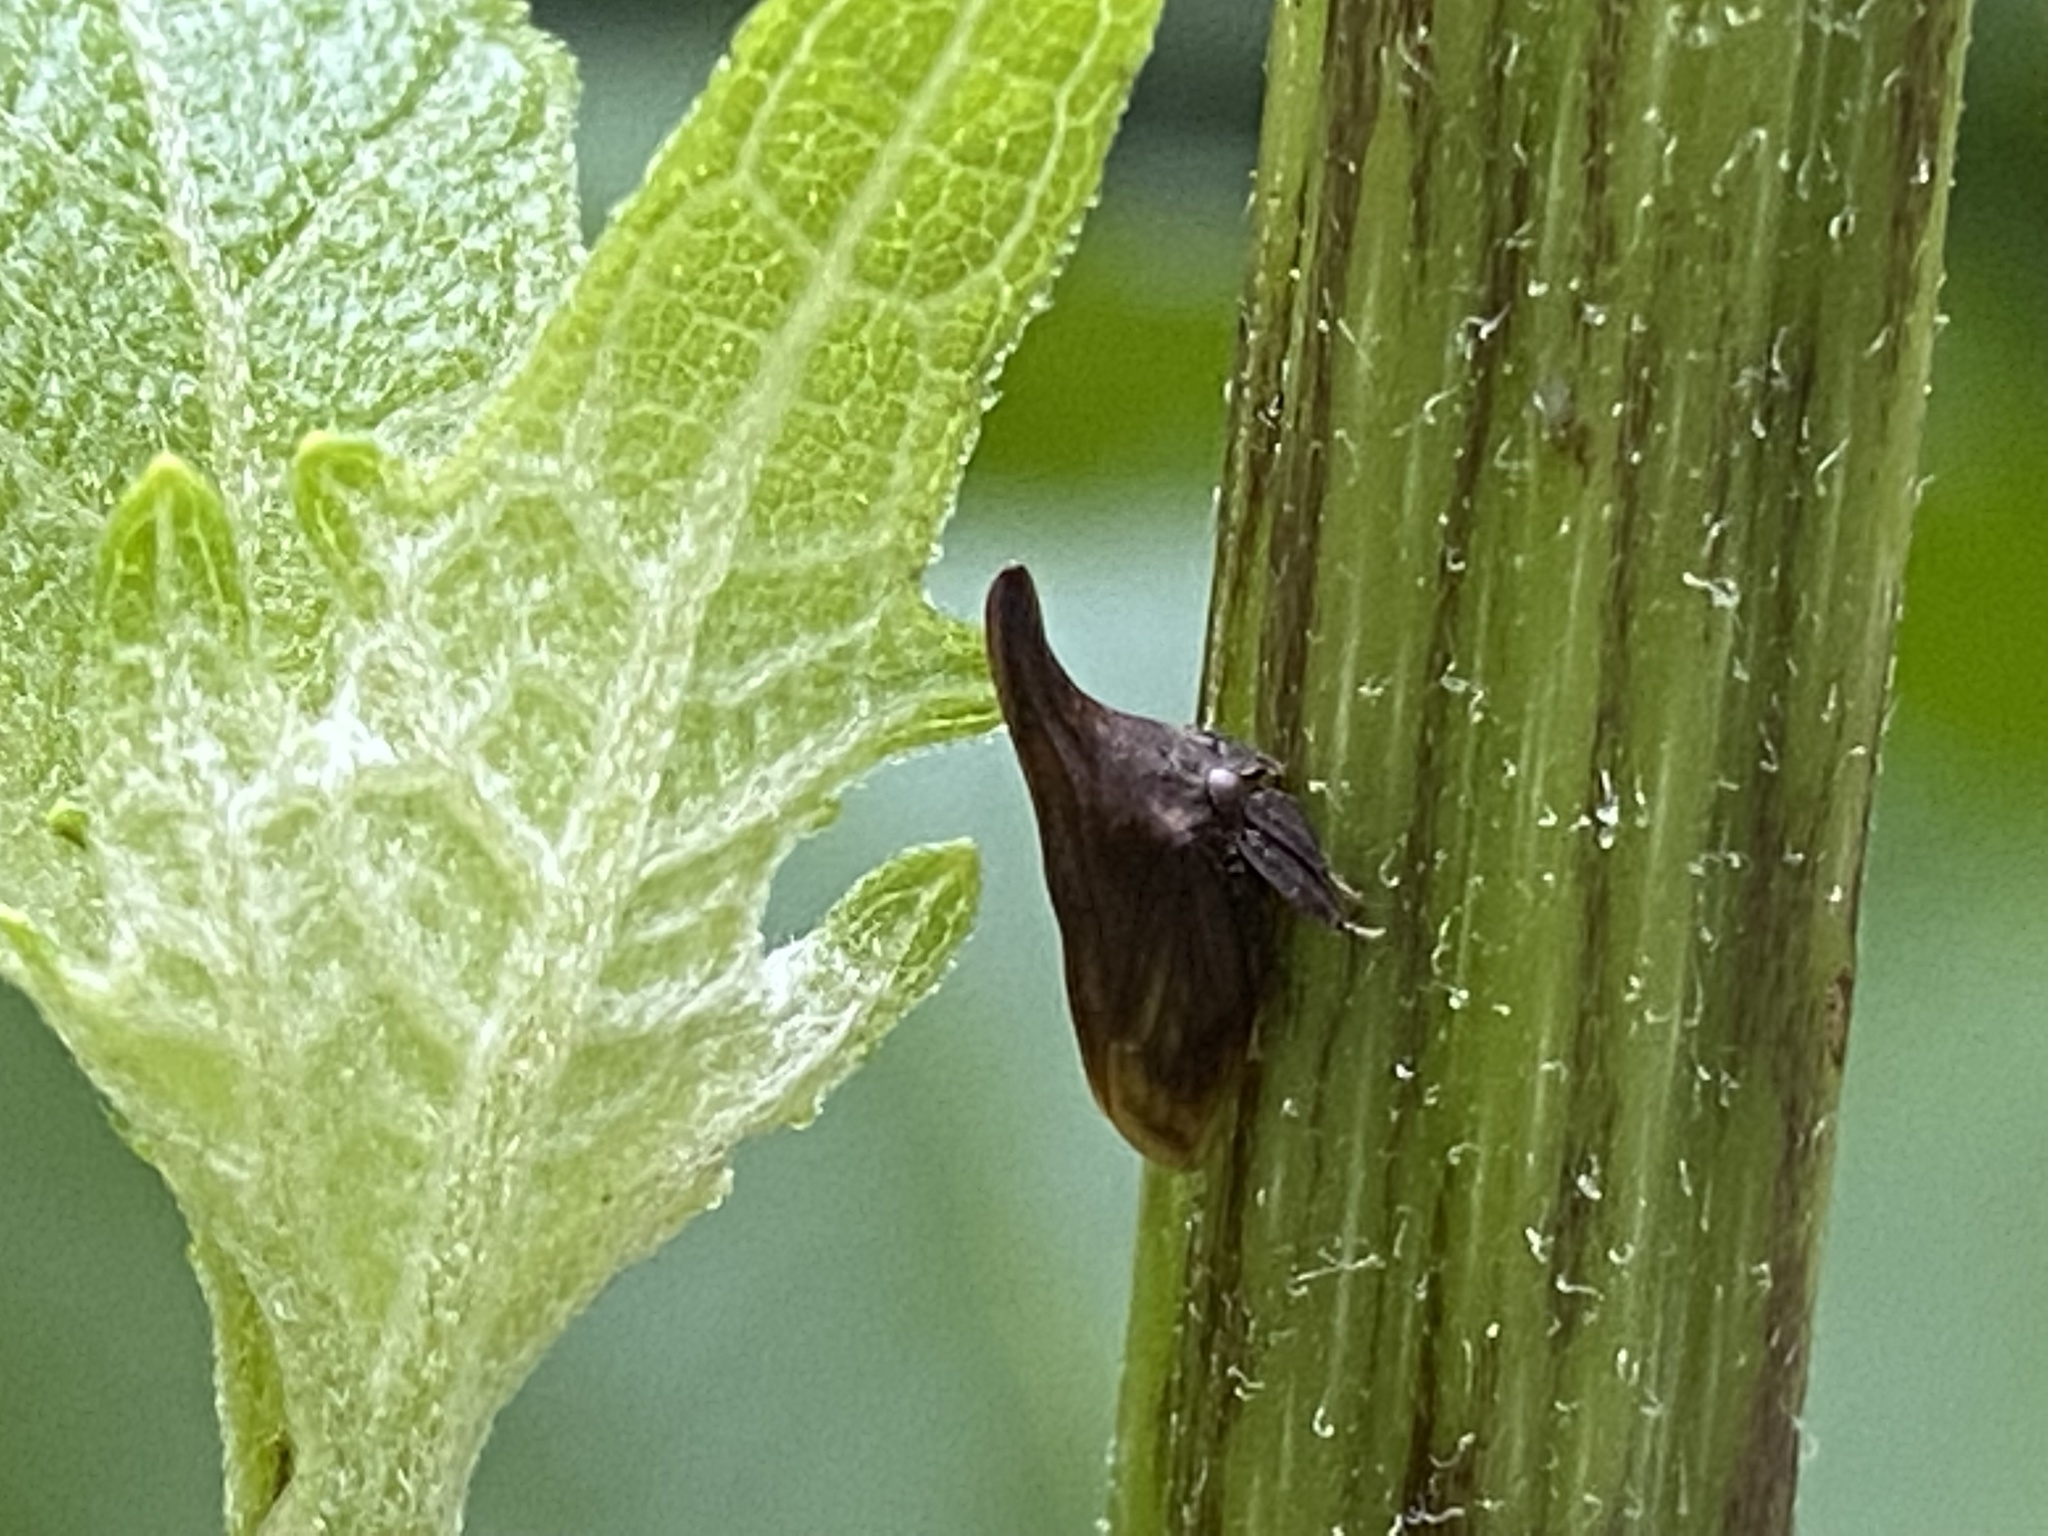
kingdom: Animalia
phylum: Arthropoda
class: Insecta
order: Hemiptera
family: Membracidae
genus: Enchenopa
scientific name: Enchenopa latipes
